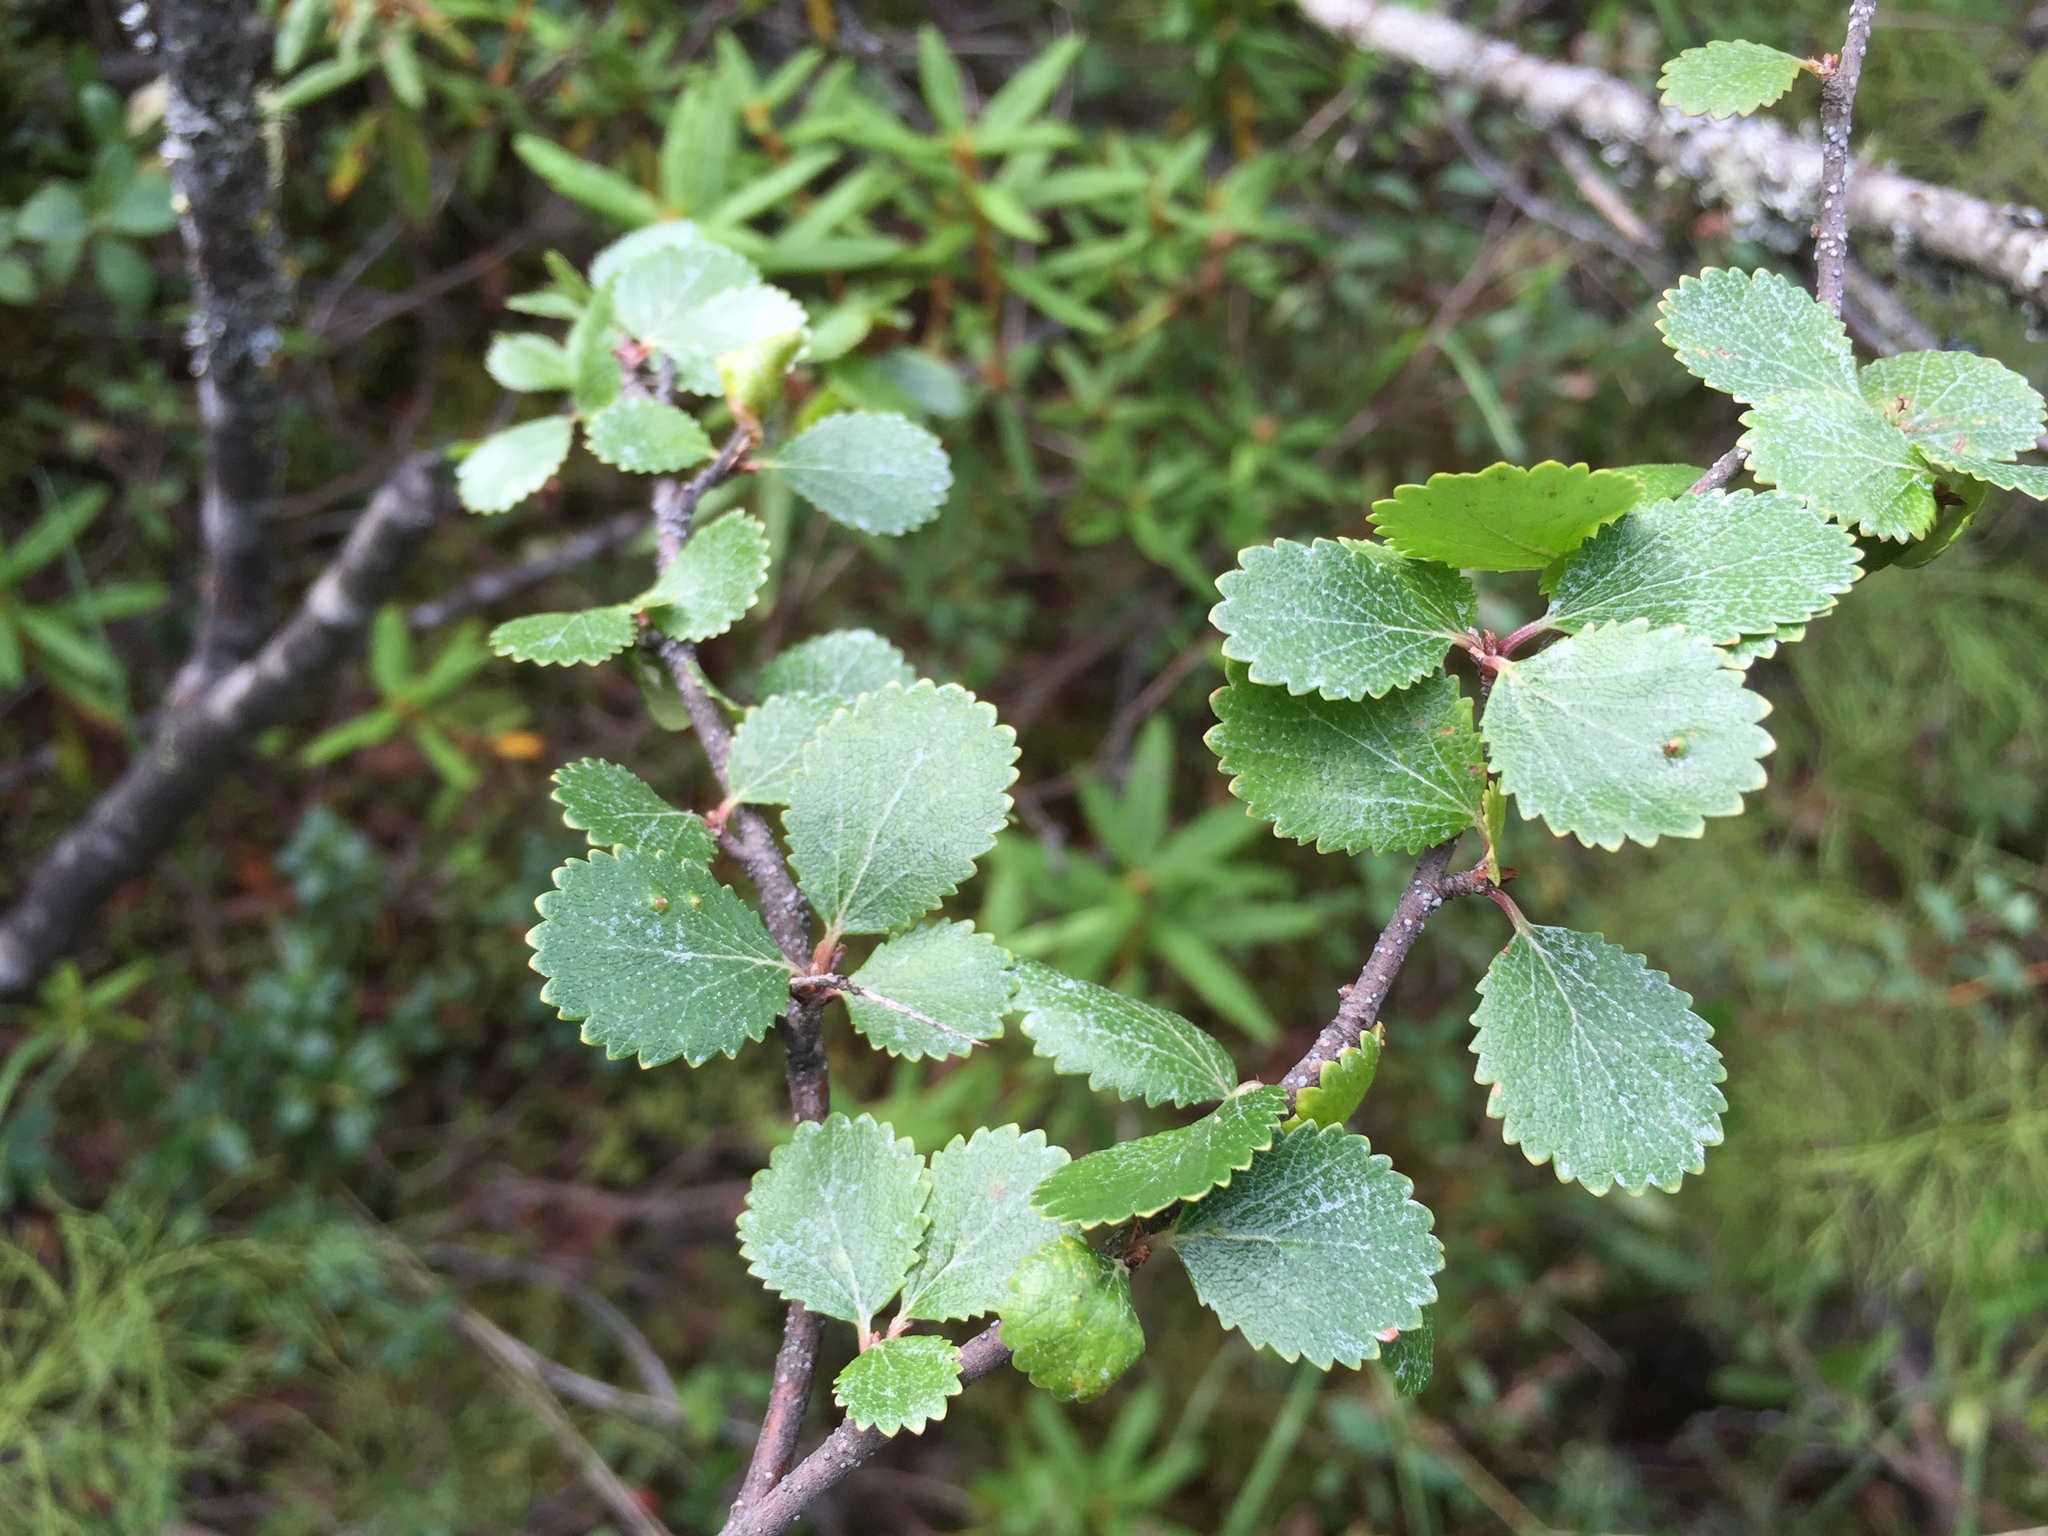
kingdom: Plantae
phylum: Tracheophyta
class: Magnoliopsida
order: Fagales
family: Betulaceae
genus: Betula
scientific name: Betula nana
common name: Arctic dwarf birch
